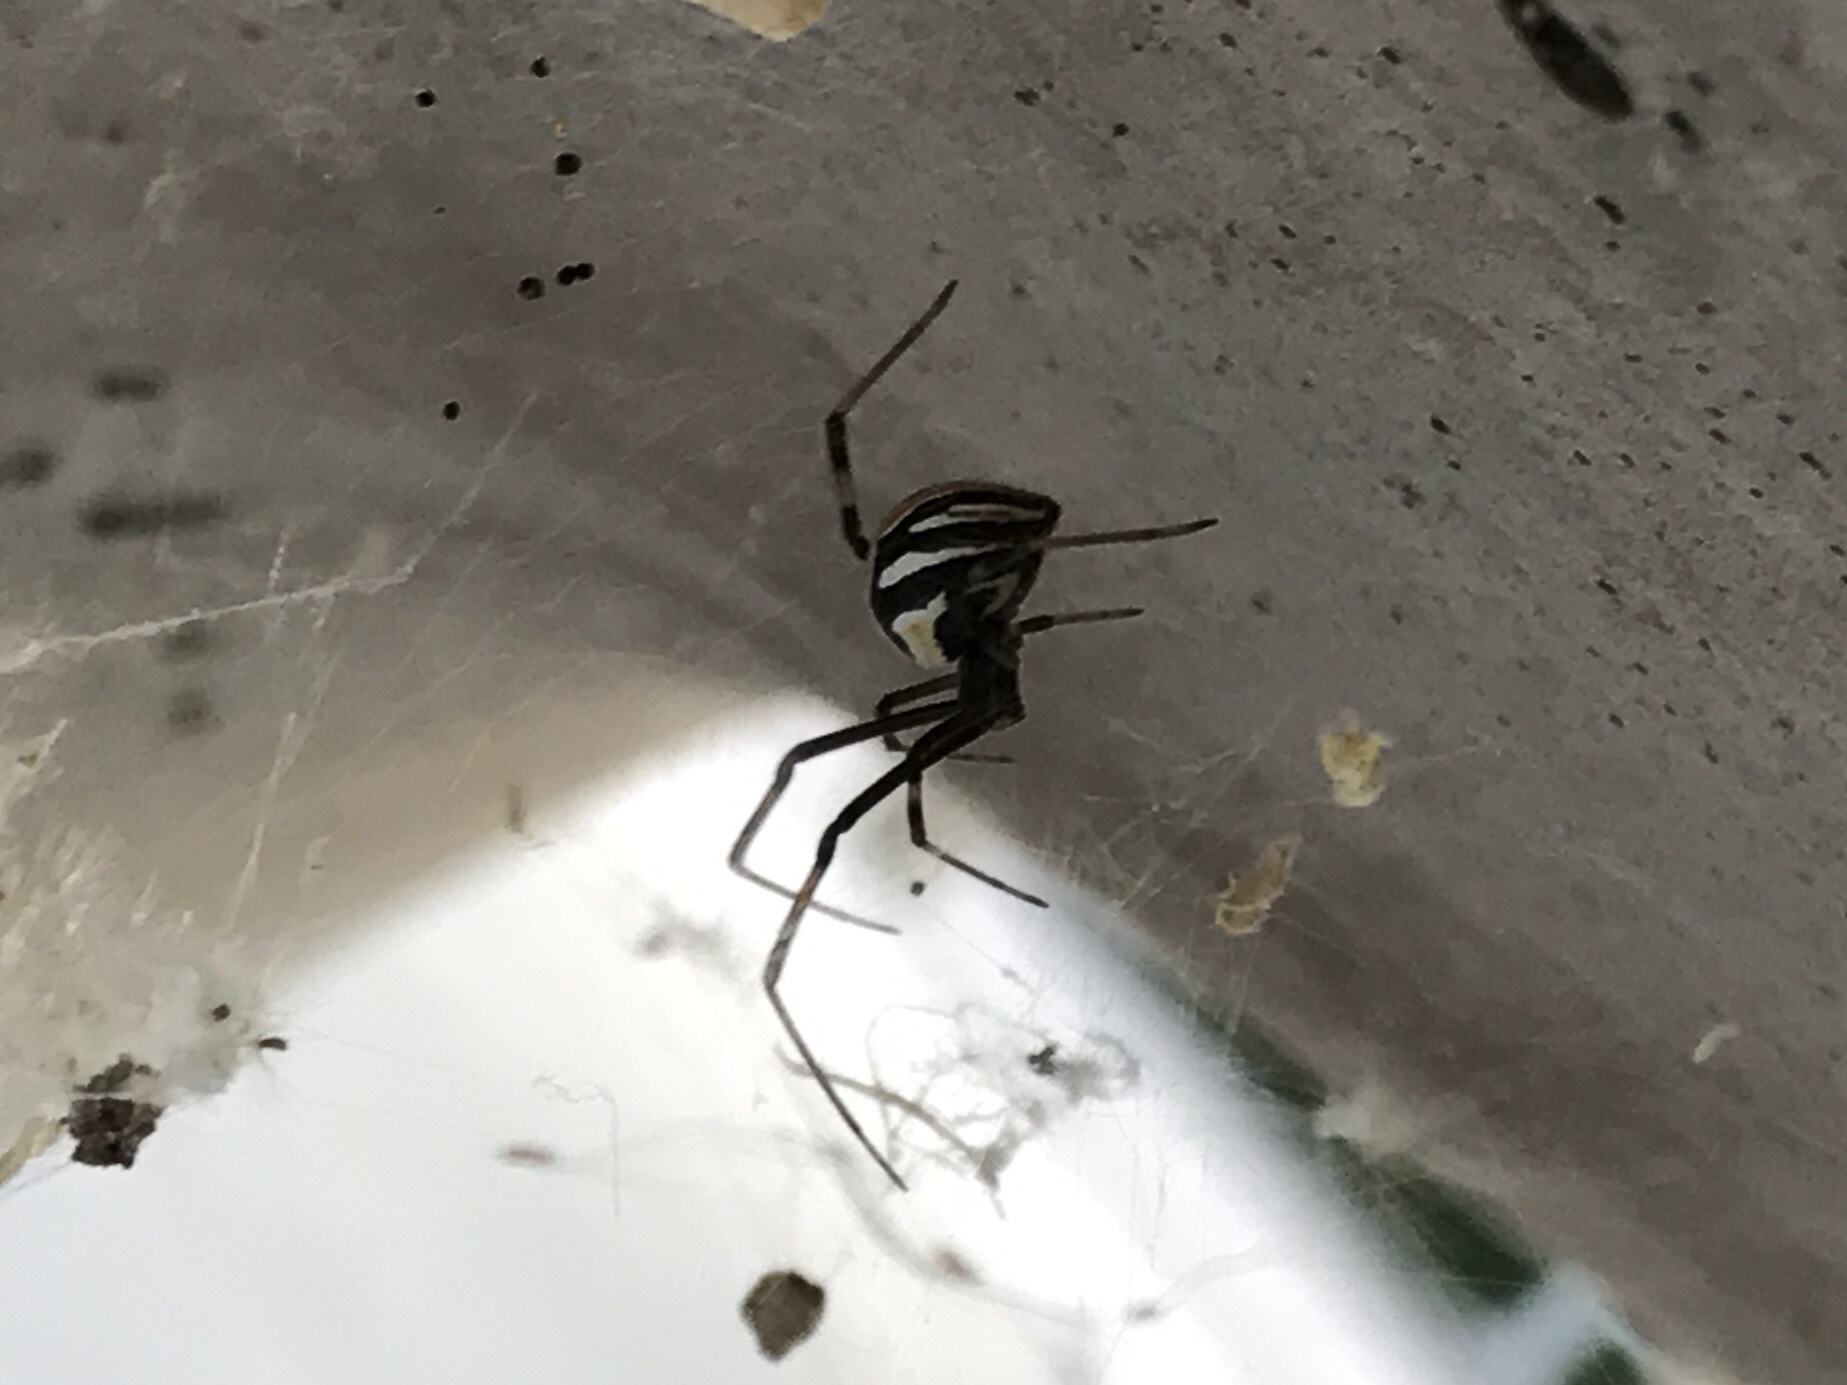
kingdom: Animalia
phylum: Arthropoda
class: Arachnida
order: Araneae
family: Theridiidae
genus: Latrodectus
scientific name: Latrodectus hesperus
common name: Western black widow
